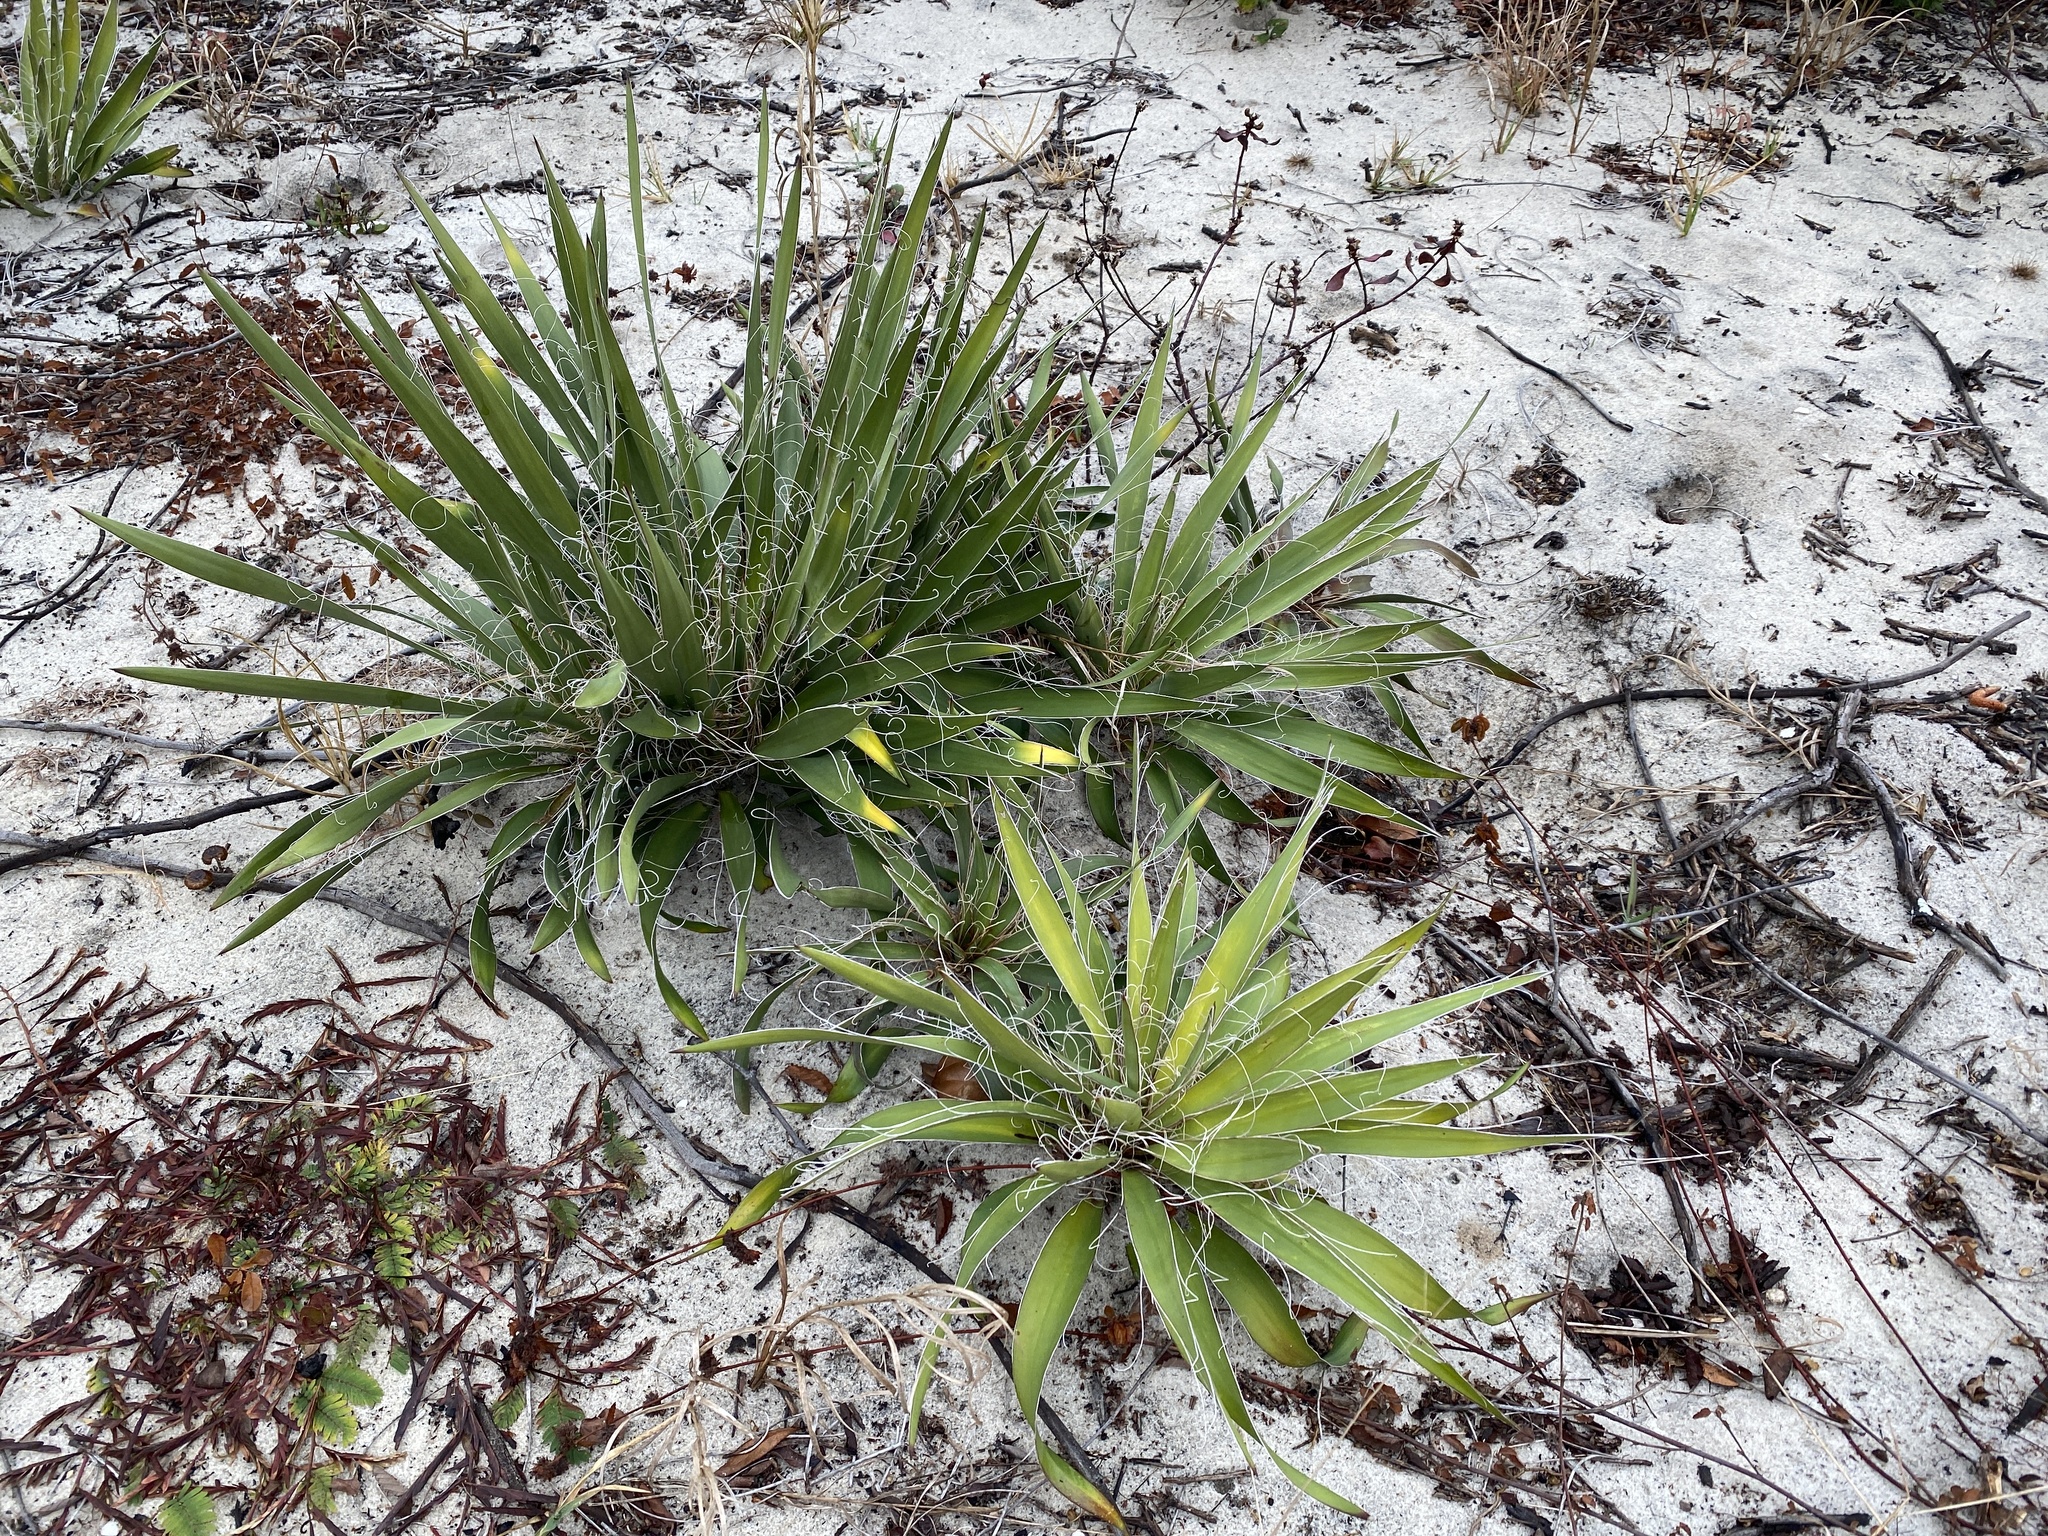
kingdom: Plantae
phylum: Tracheophyta
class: Liliopsida
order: Asparagales
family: Asparagaceae
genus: Yucca
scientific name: Yucca filamentosa
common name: Adam's-needle
